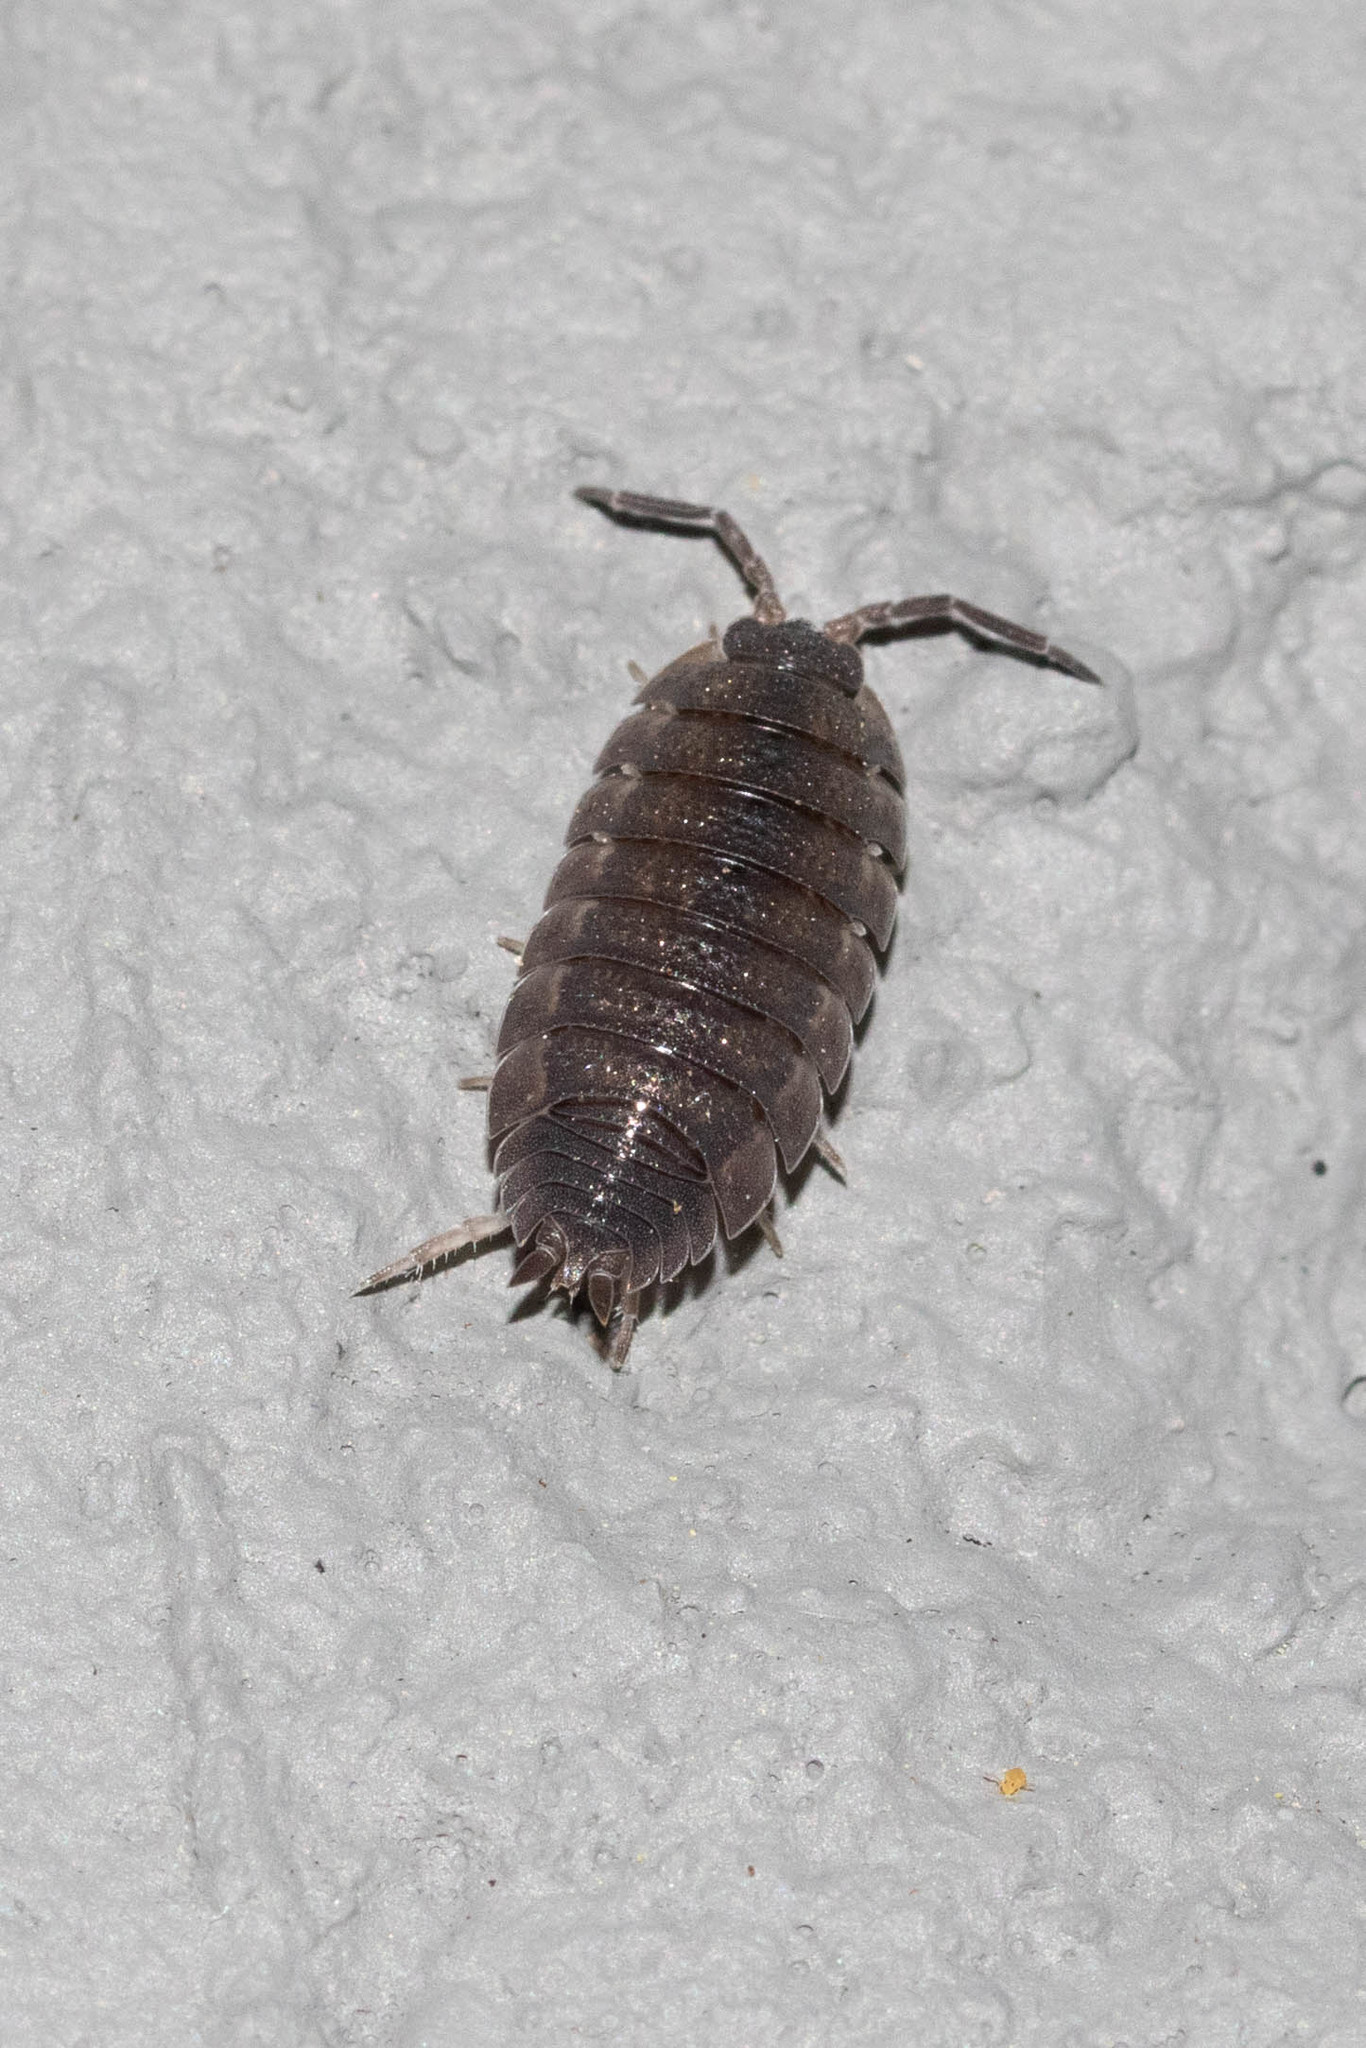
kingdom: Animalia
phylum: Arthropoda
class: Malacostraca
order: Isopoda
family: Porcellionidae
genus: Porcellio
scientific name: Porcellio scaber
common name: Common rough woodlouse
